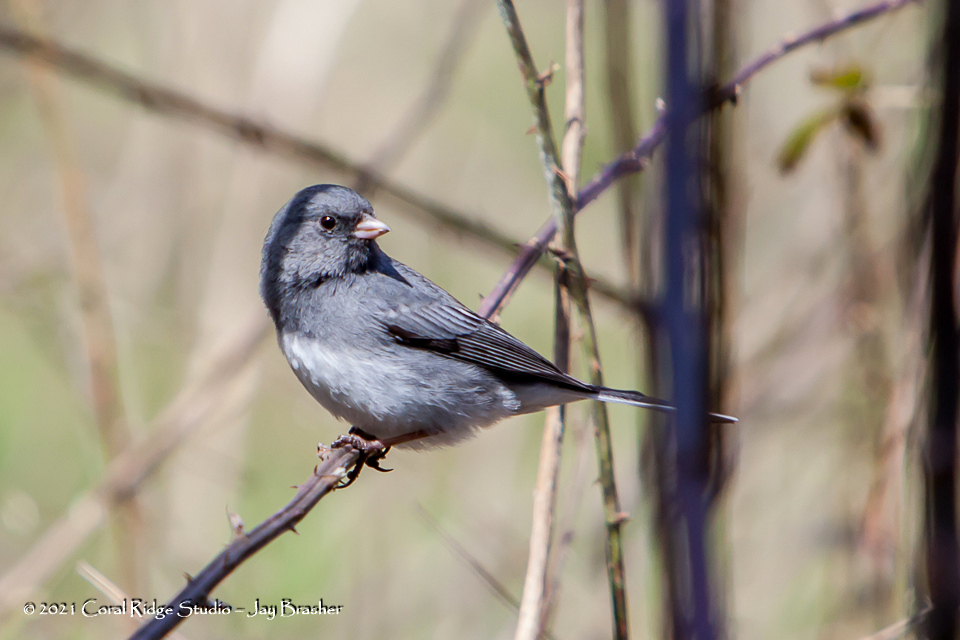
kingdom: Animalia
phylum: Chordata
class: Aves
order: Passeriformes
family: Passerellidae
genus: Junco
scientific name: Junco hyemalis
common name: Dark-eyed junco
